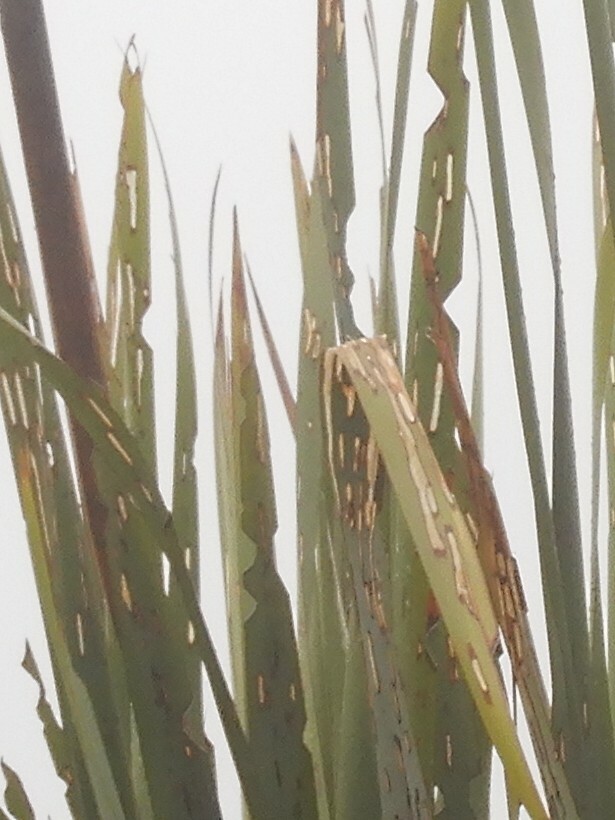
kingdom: Animalia
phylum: Arthropoda
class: Insecta
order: Lepidoptera
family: Noctuidae
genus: Ichneutica
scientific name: Ichneutica
